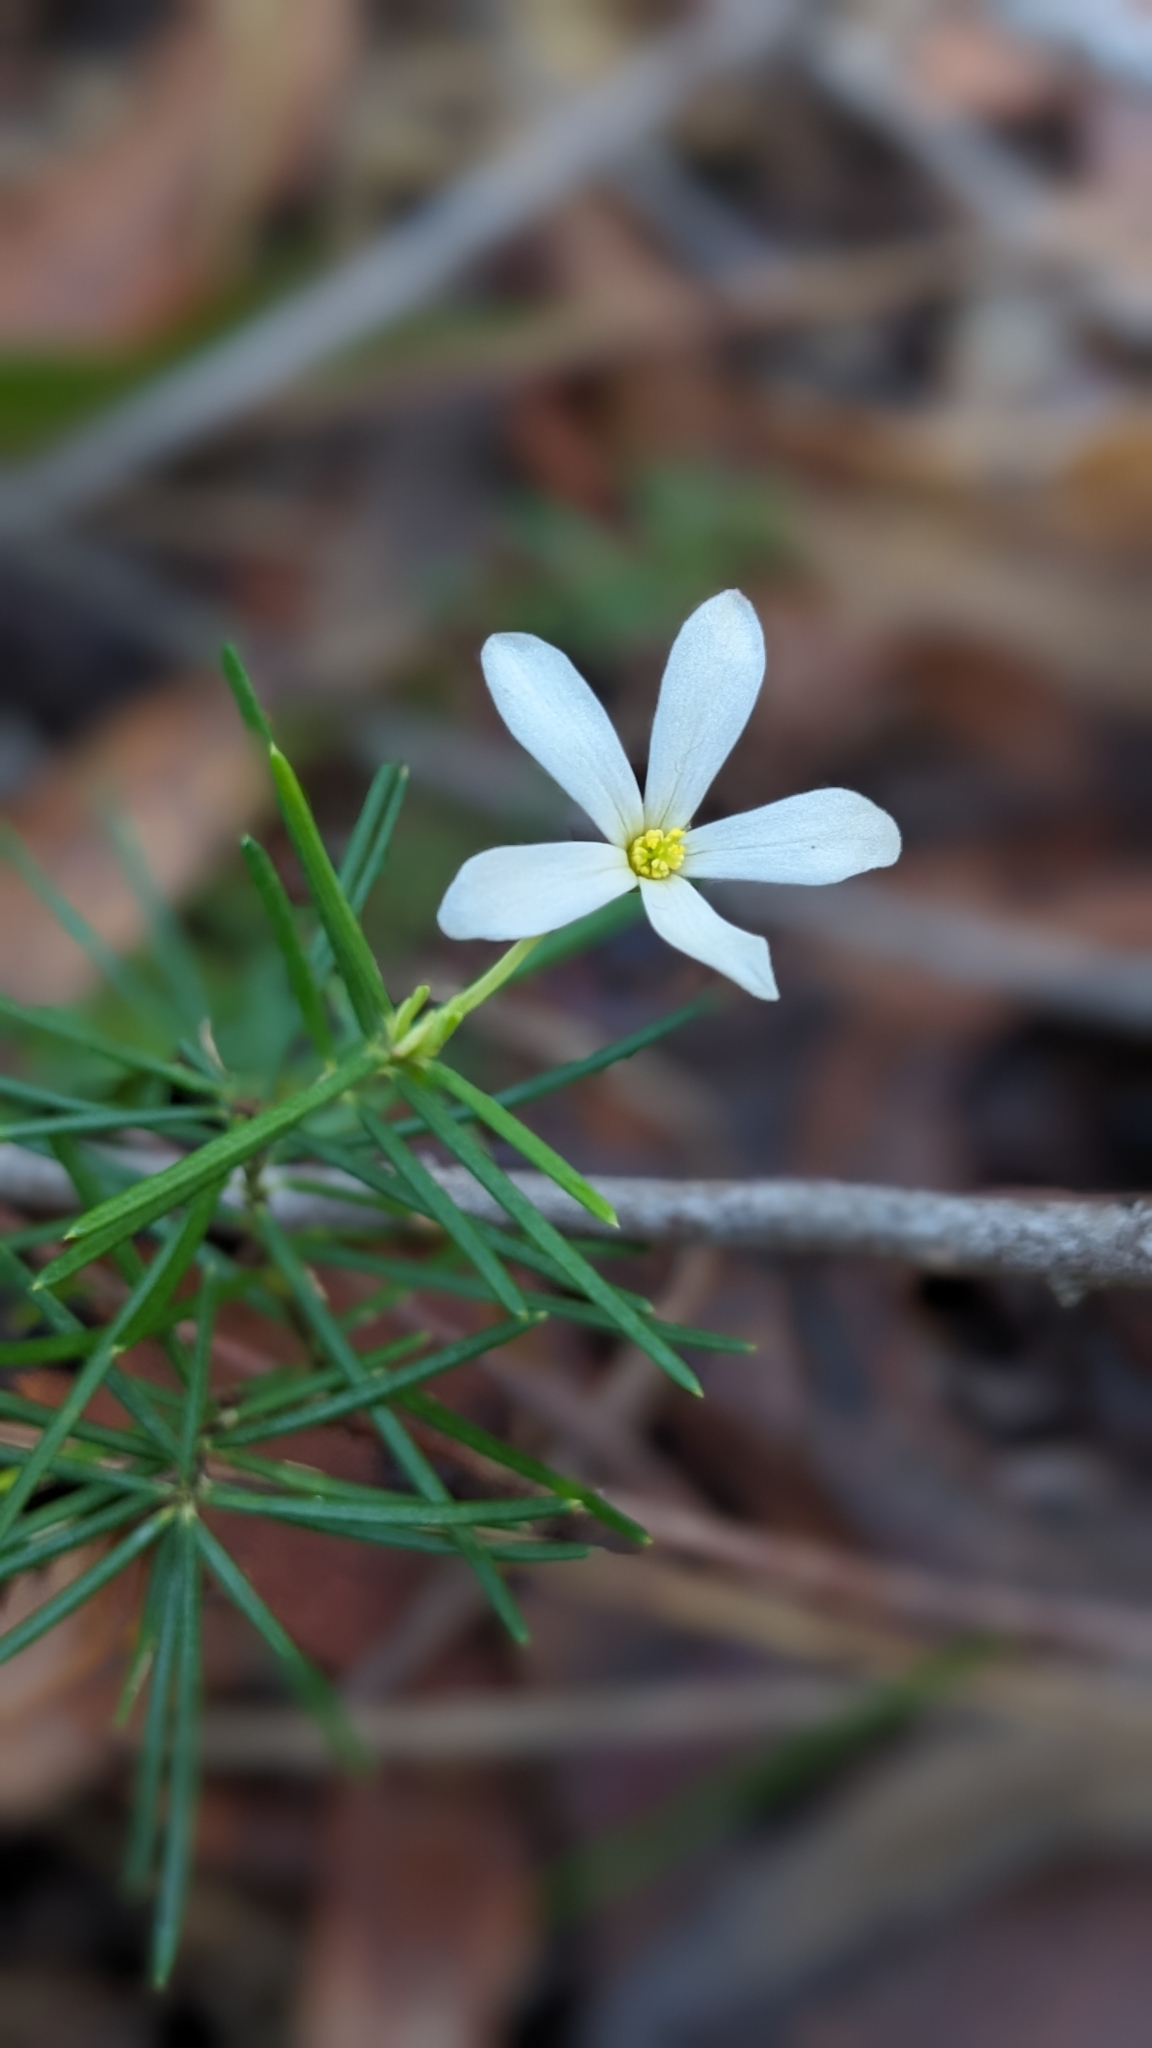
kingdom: Plantae
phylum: Tracheophyta
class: Magnoliopsida
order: Malpighiales
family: Euphorbiaceae
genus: Ricinocarpos
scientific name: Ricinocarpos pinifolius
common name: Weddingbush
